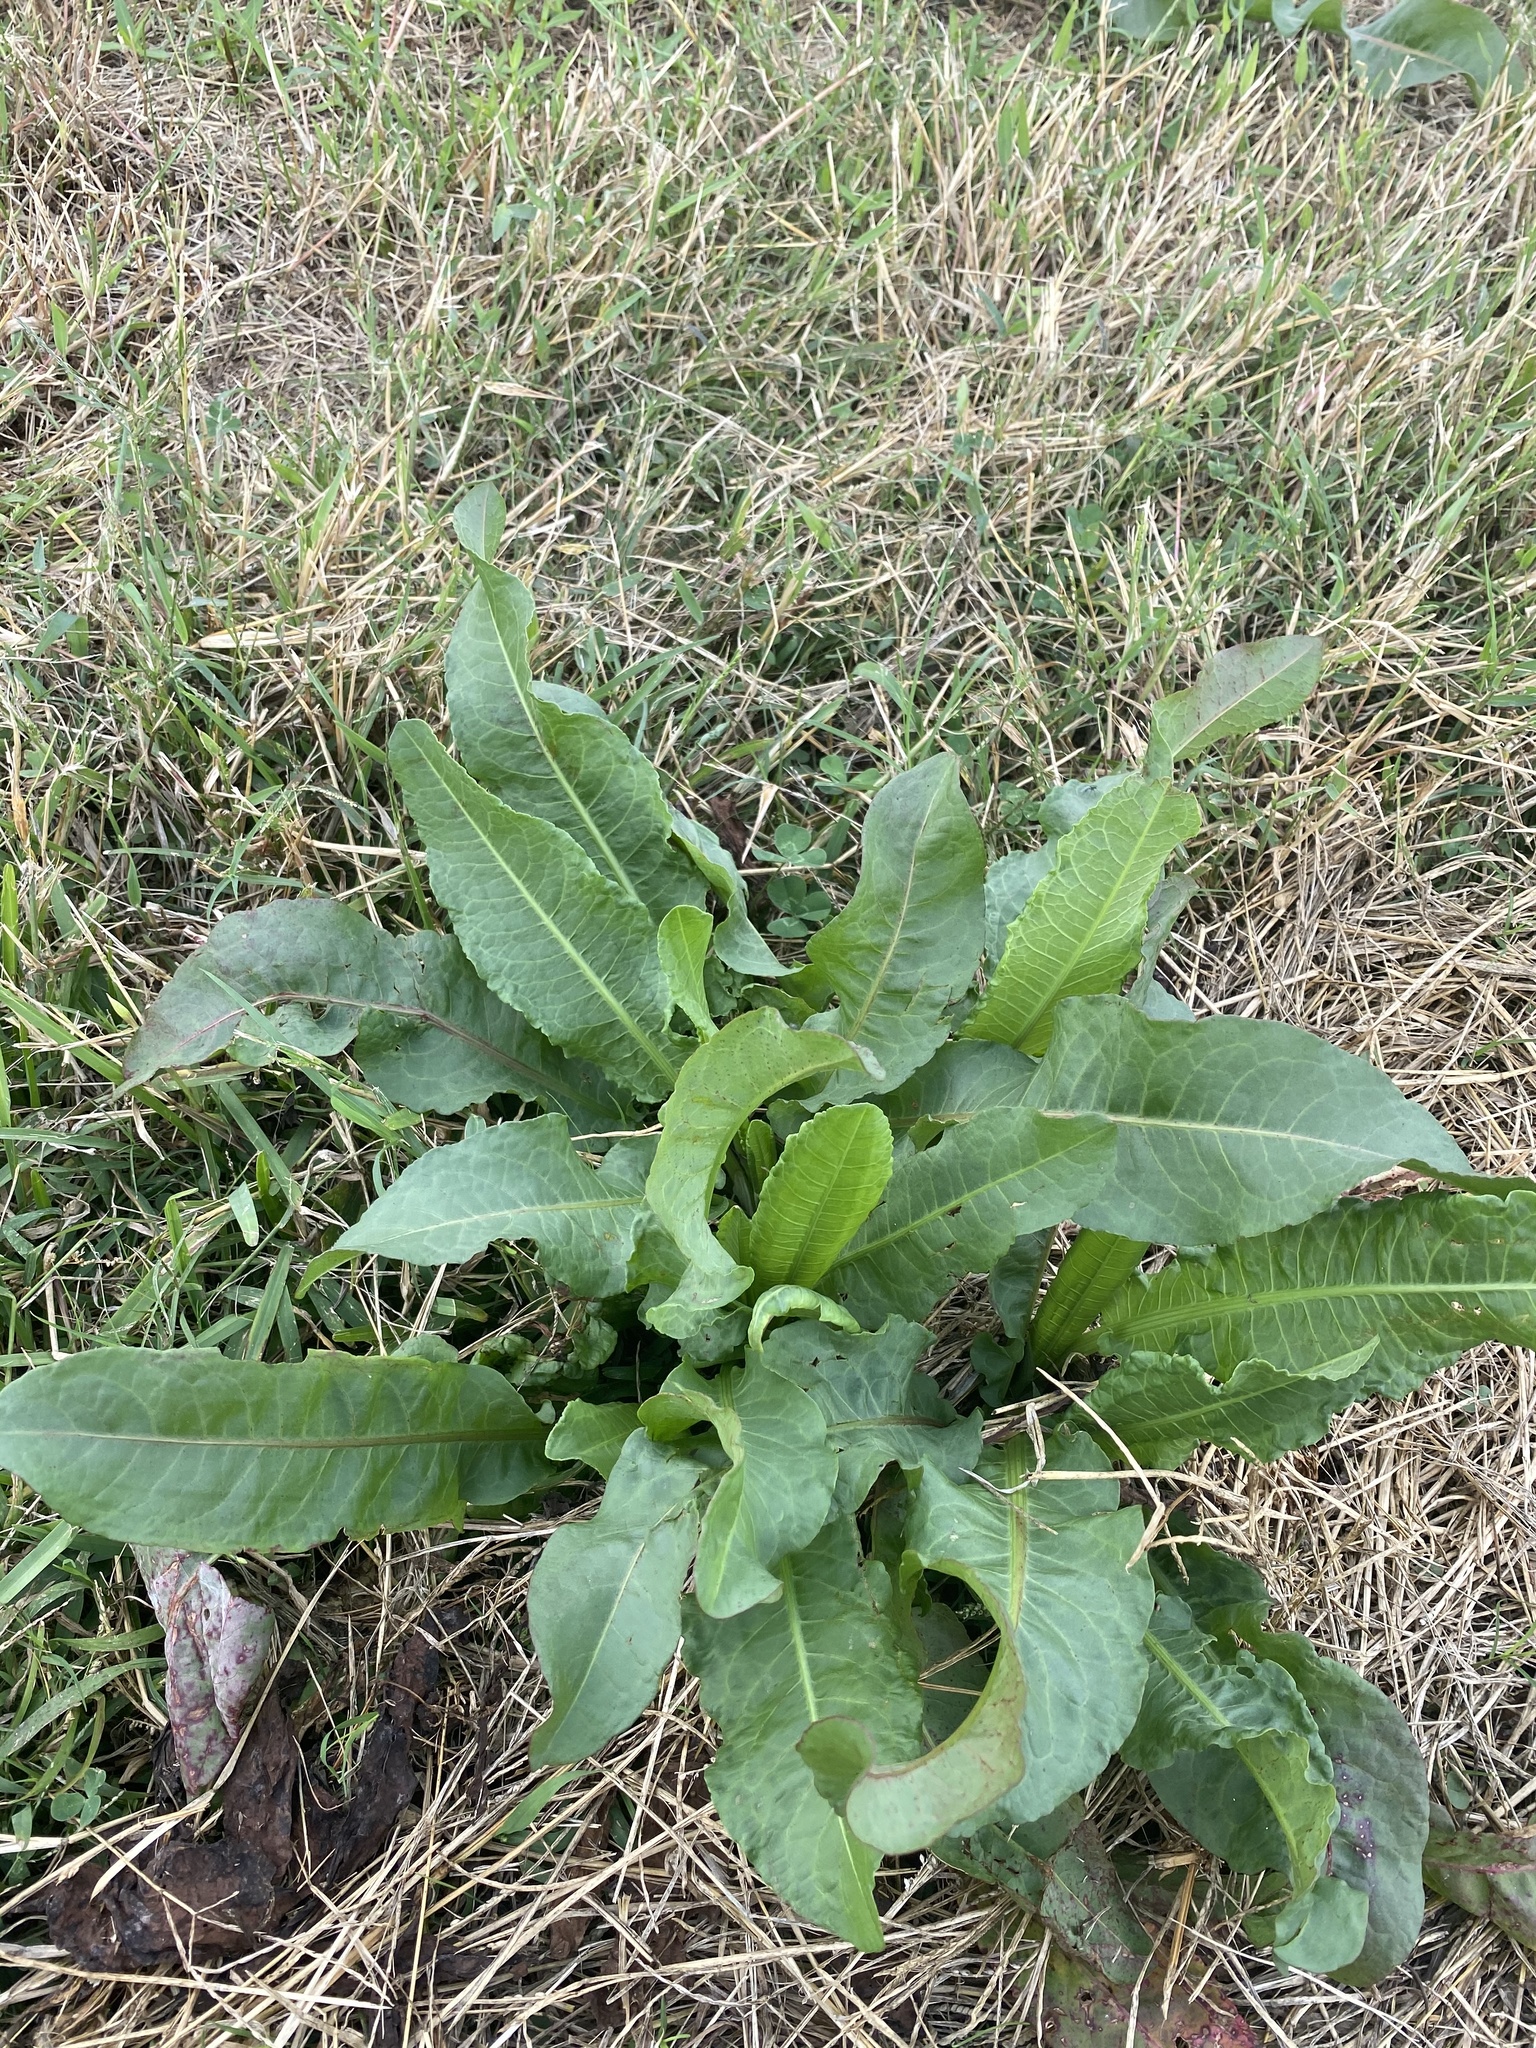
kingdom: Plantae
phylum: Tracheophyta
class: Magnoliopsida
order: Caryophyllales
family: Polygonaceae
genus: Rumex
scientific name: Rumex crispus
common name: Curled dock
